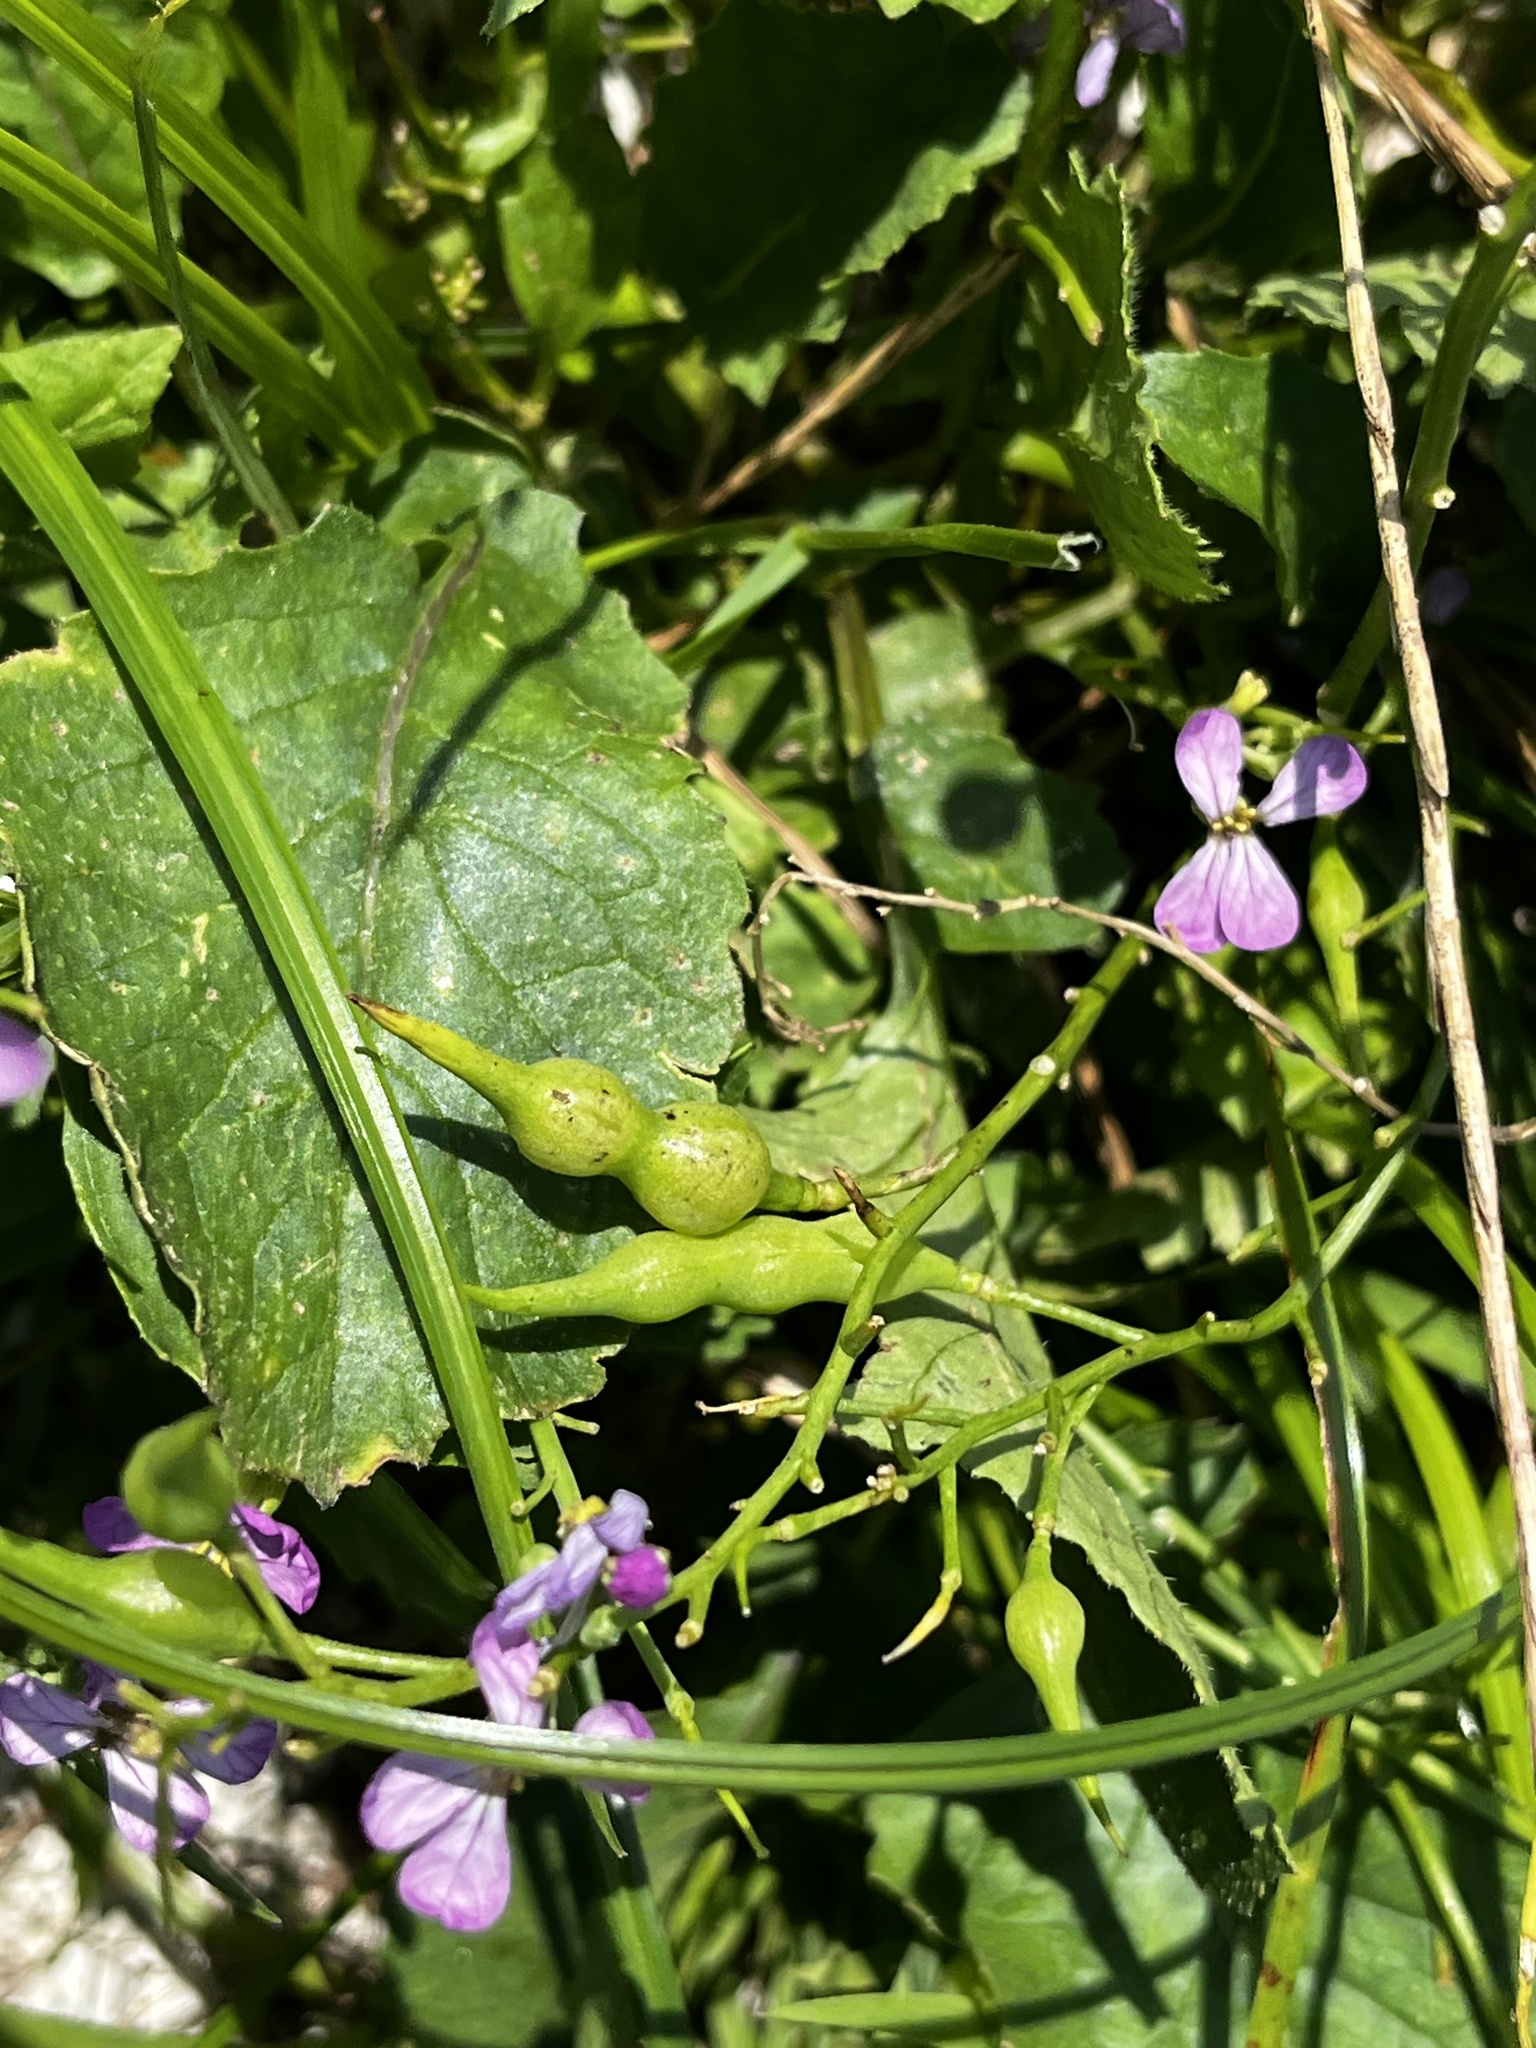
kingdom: Plantae
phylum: Tracheophyta
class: Magnoliopsida
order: Brassicales
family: Brassicaceae
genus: Raphanus
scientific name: Raphanus sativus
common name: Cultivated radish
